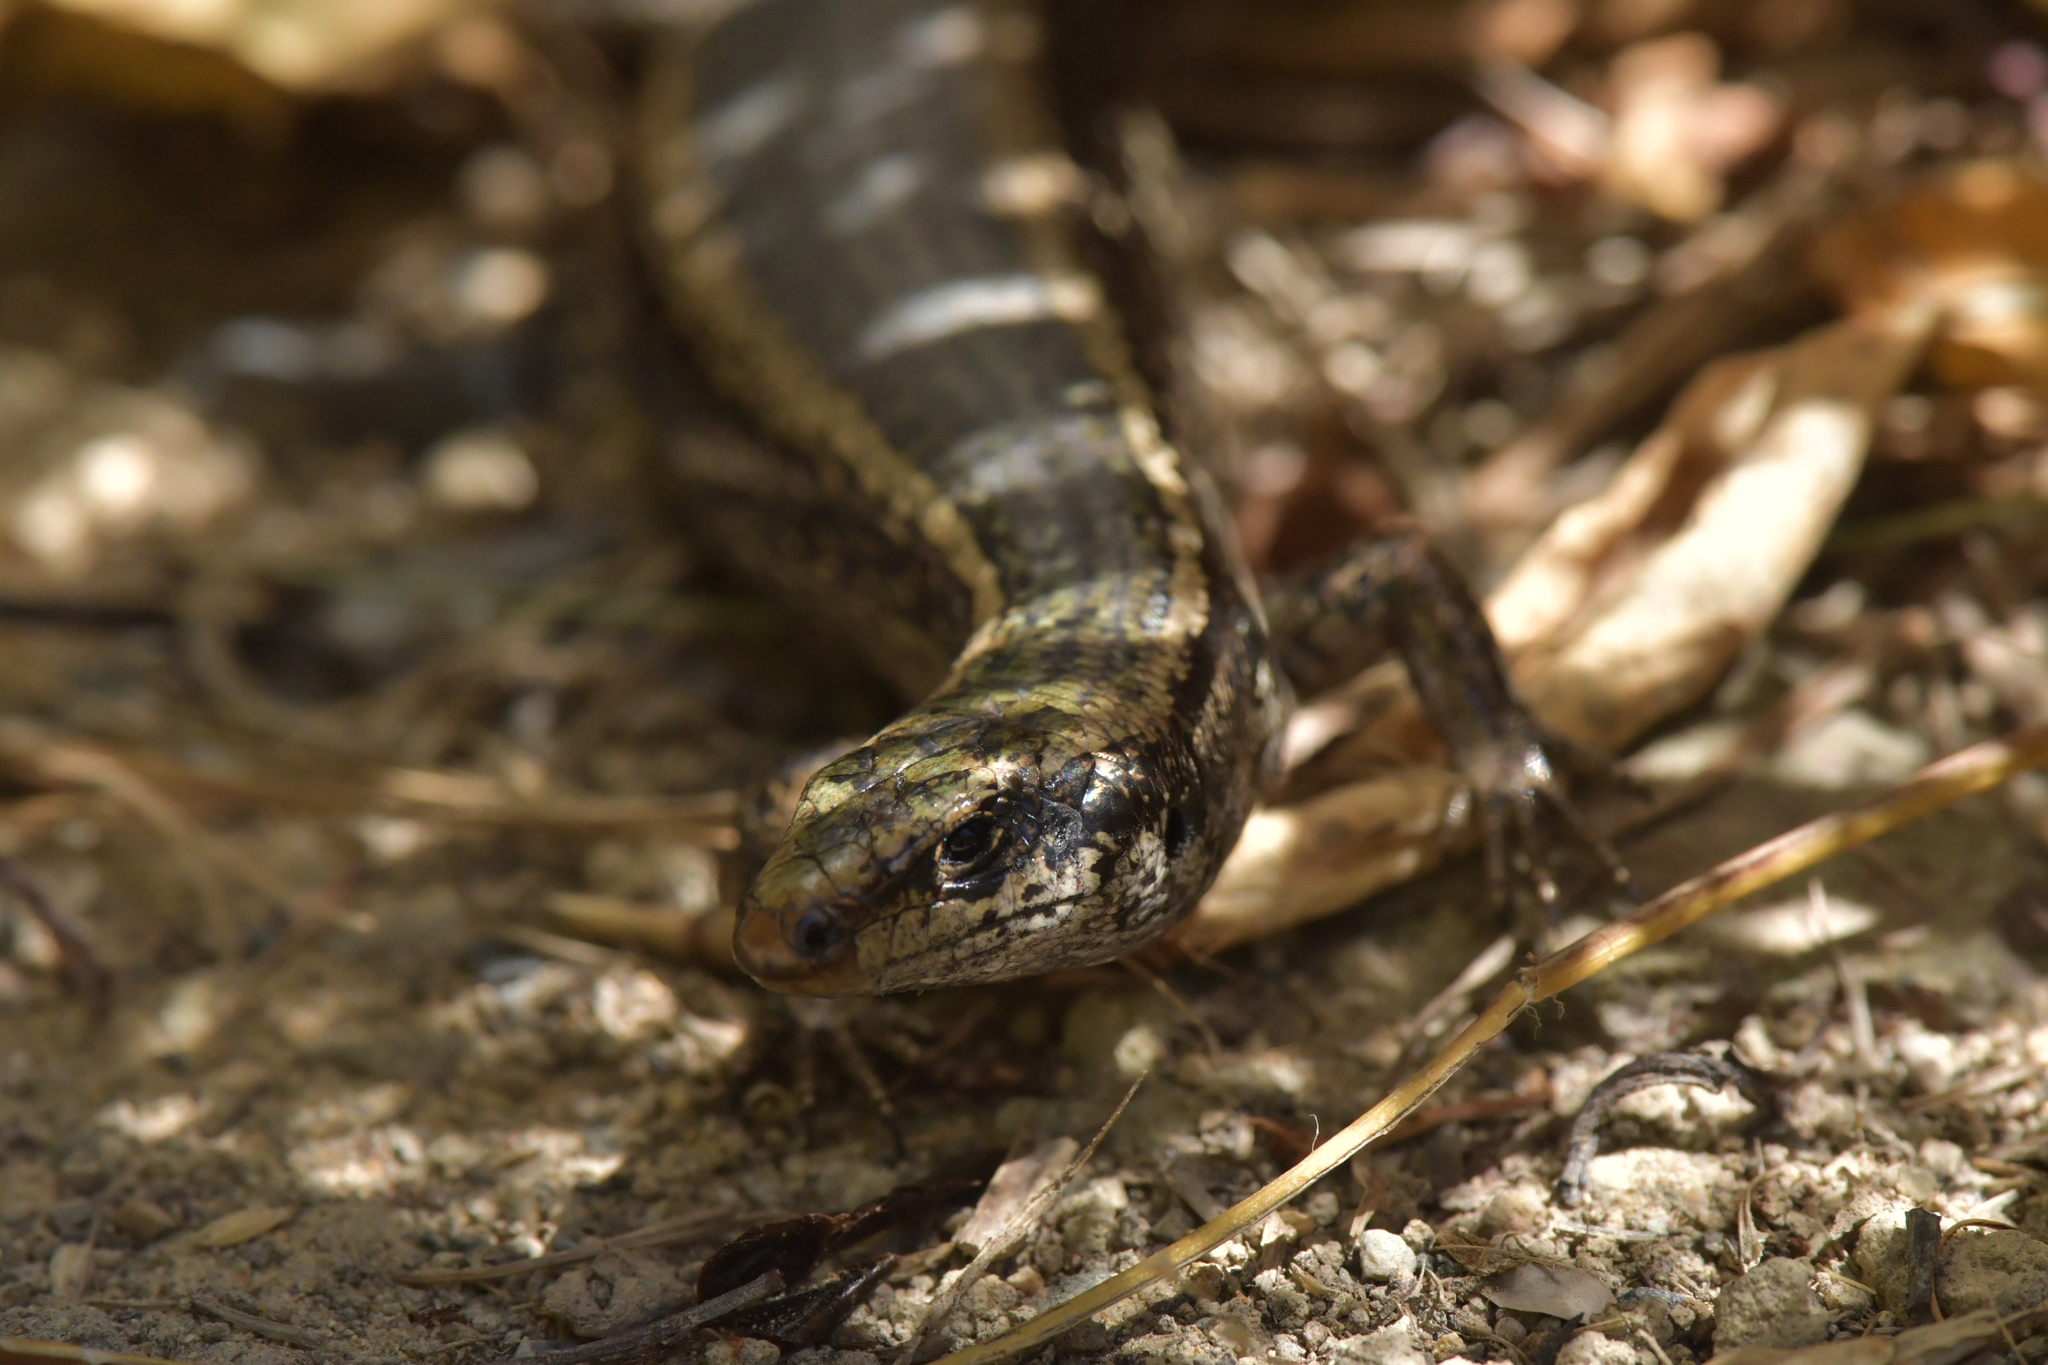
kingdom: Animalia
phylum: Chordata
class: Squamata
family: Scincidae
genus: Oligosoma
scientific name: Oligosoma kokowai
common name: Northern spotted skink
